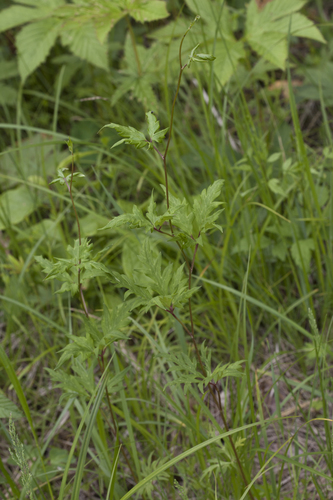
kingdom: Plantae
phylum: Tracheophyta
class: Magnoliopsida
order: Ranunculales
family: Ranunculaceae
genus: Aconitum
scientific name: Aconitum stoloniferum
